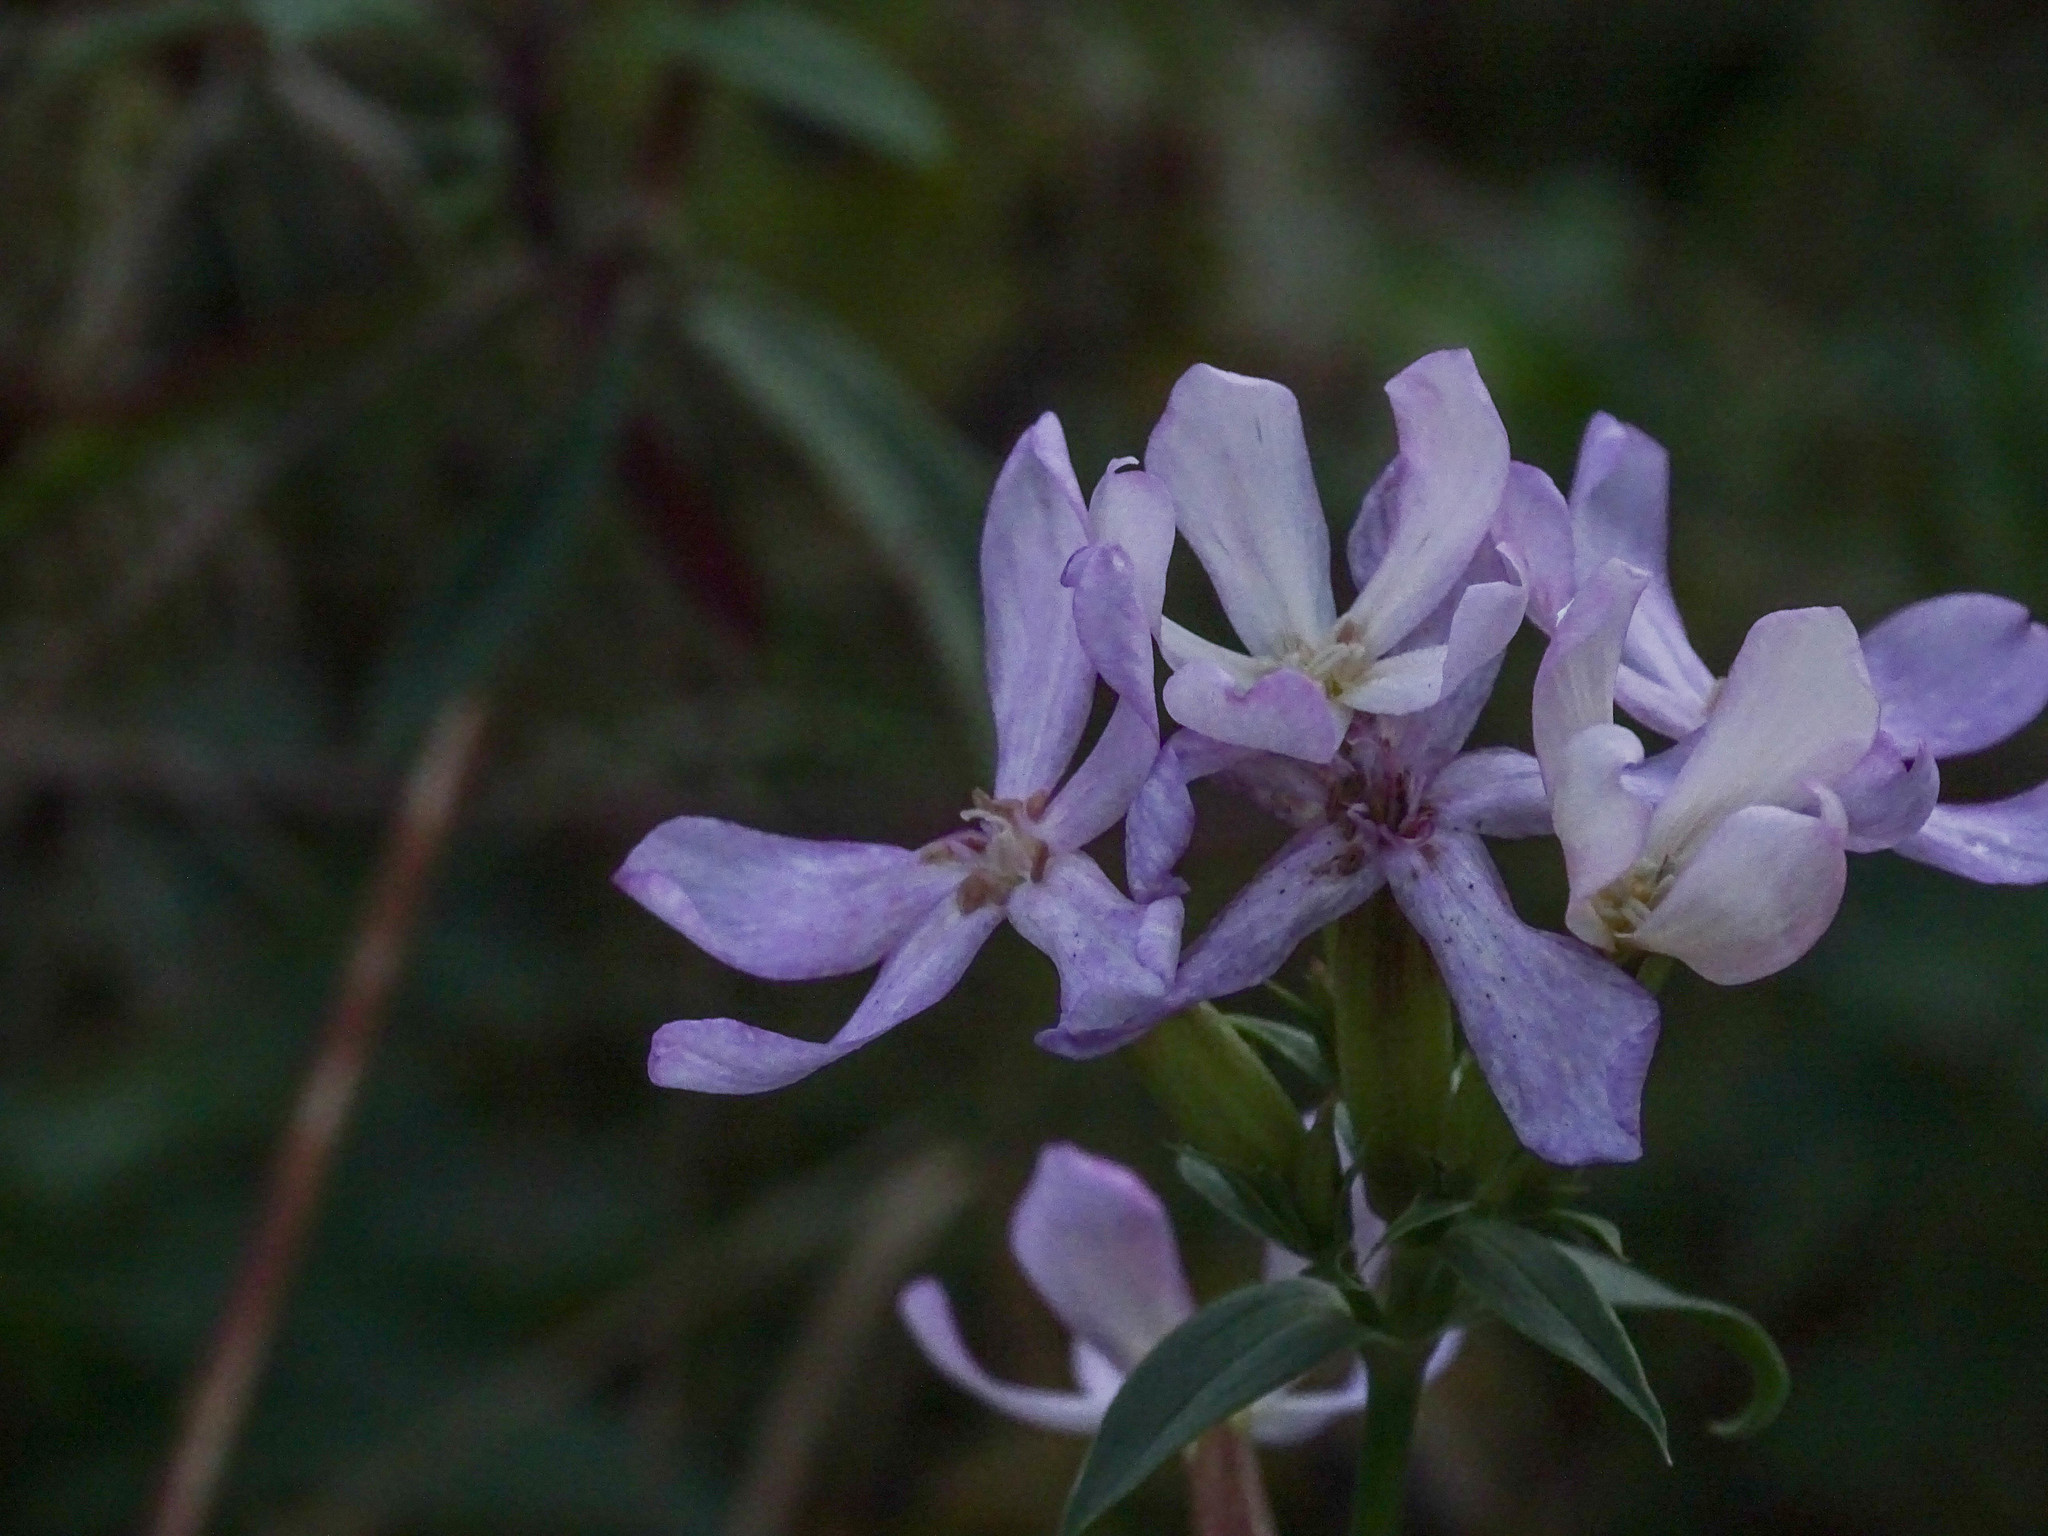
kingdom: Plantae
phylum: Tracheophyta
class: Magnoliopsida
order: Caryophyllales
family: Caryophyllaceae
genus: Saponaria
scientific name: Saponaria officinalis
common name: Soapwort
